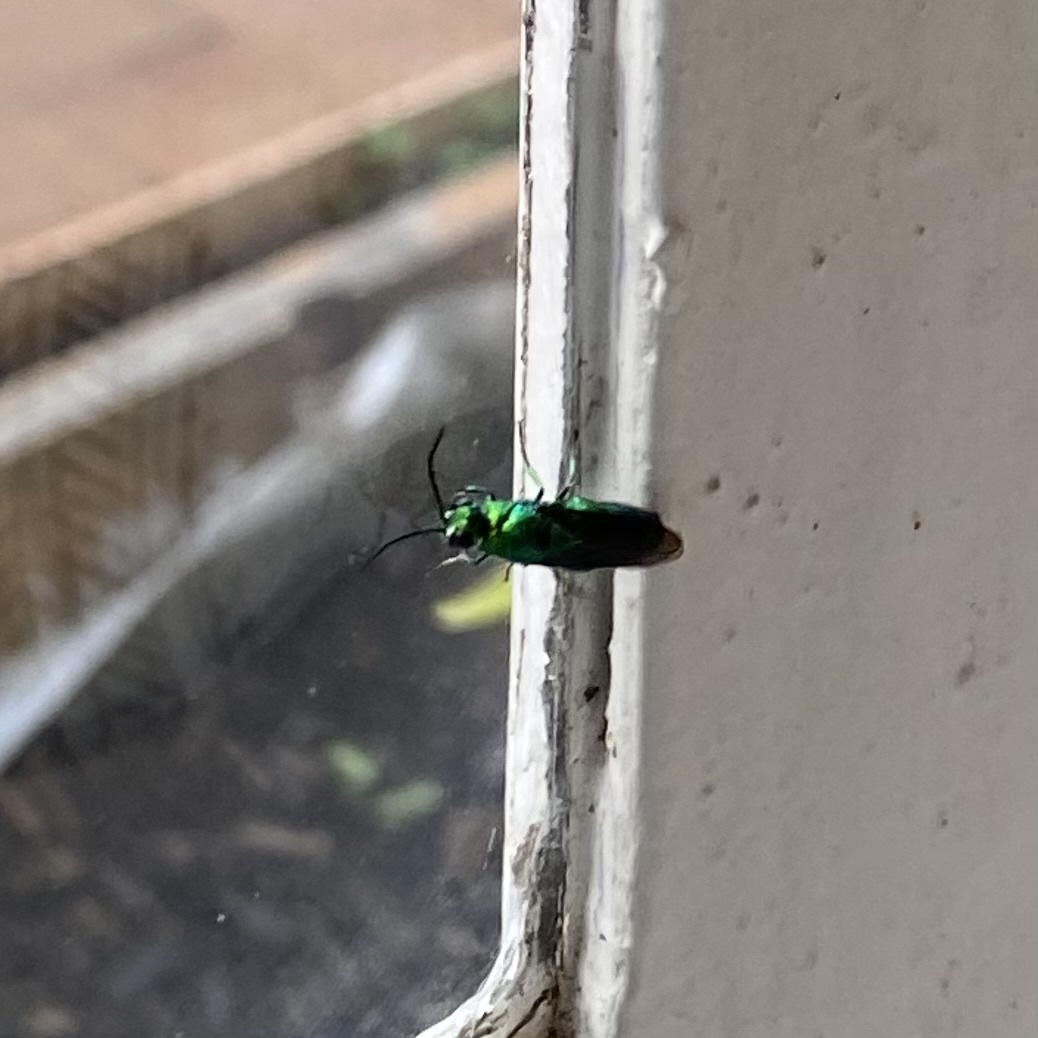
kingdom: Animalia
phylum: Arthropoda
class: Insecta
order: Hymenoptera
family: Chrysididae
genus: Chrysis
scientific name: Chrysis lincea
